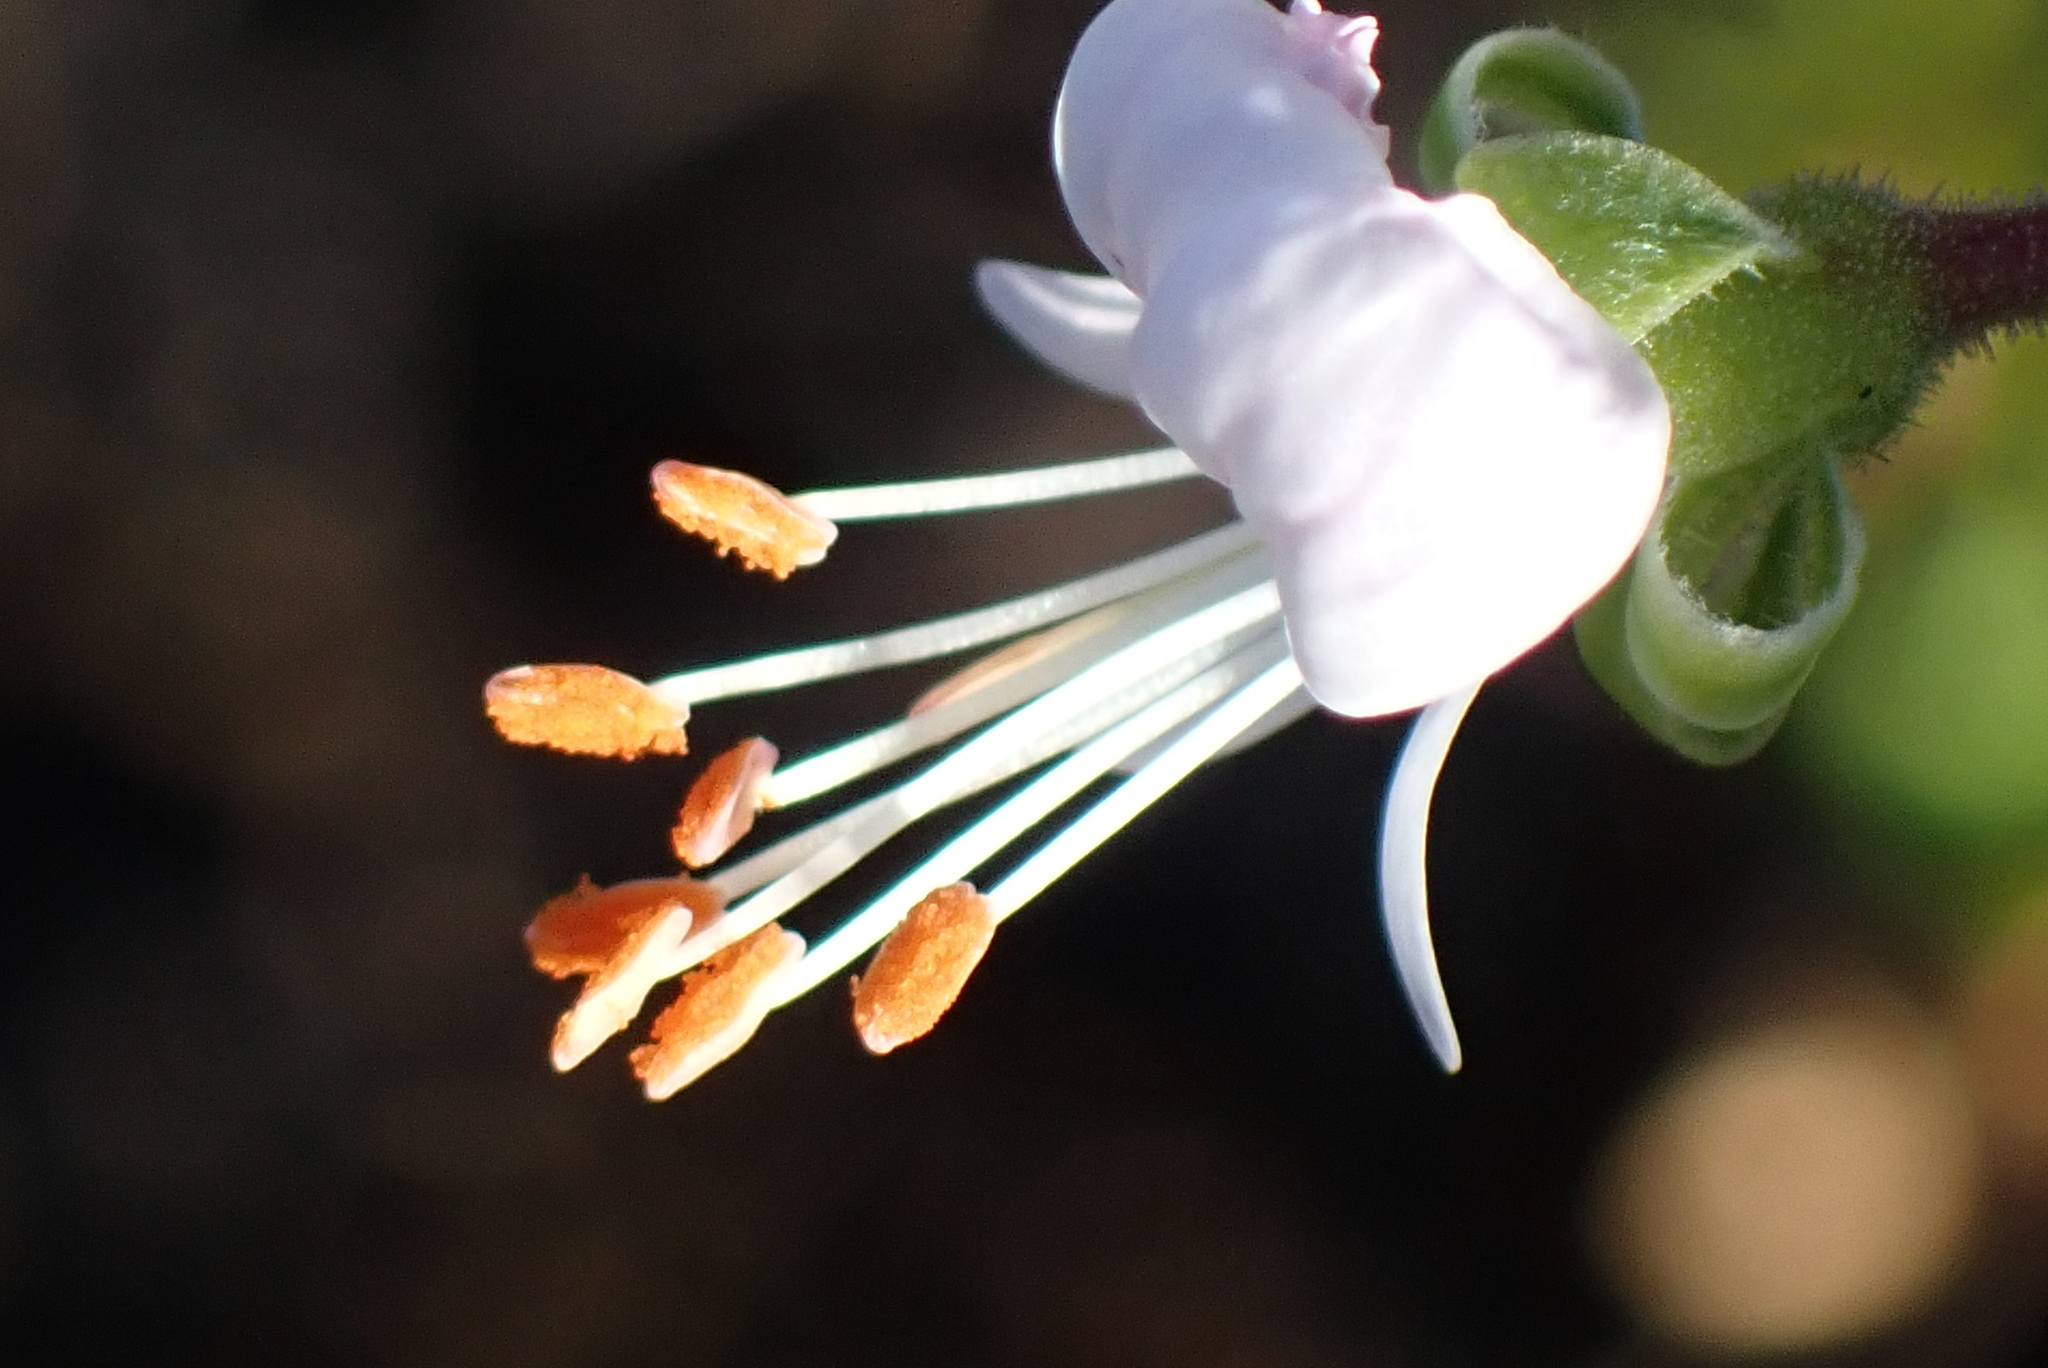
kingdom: Plantae
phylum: Tracheophyta
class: Magnoliopsida
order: Geraniales
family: Geraniaceae
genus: Pelargonium
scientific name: Pelargonium ribifolium
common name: Currant-leaf pelargonium
